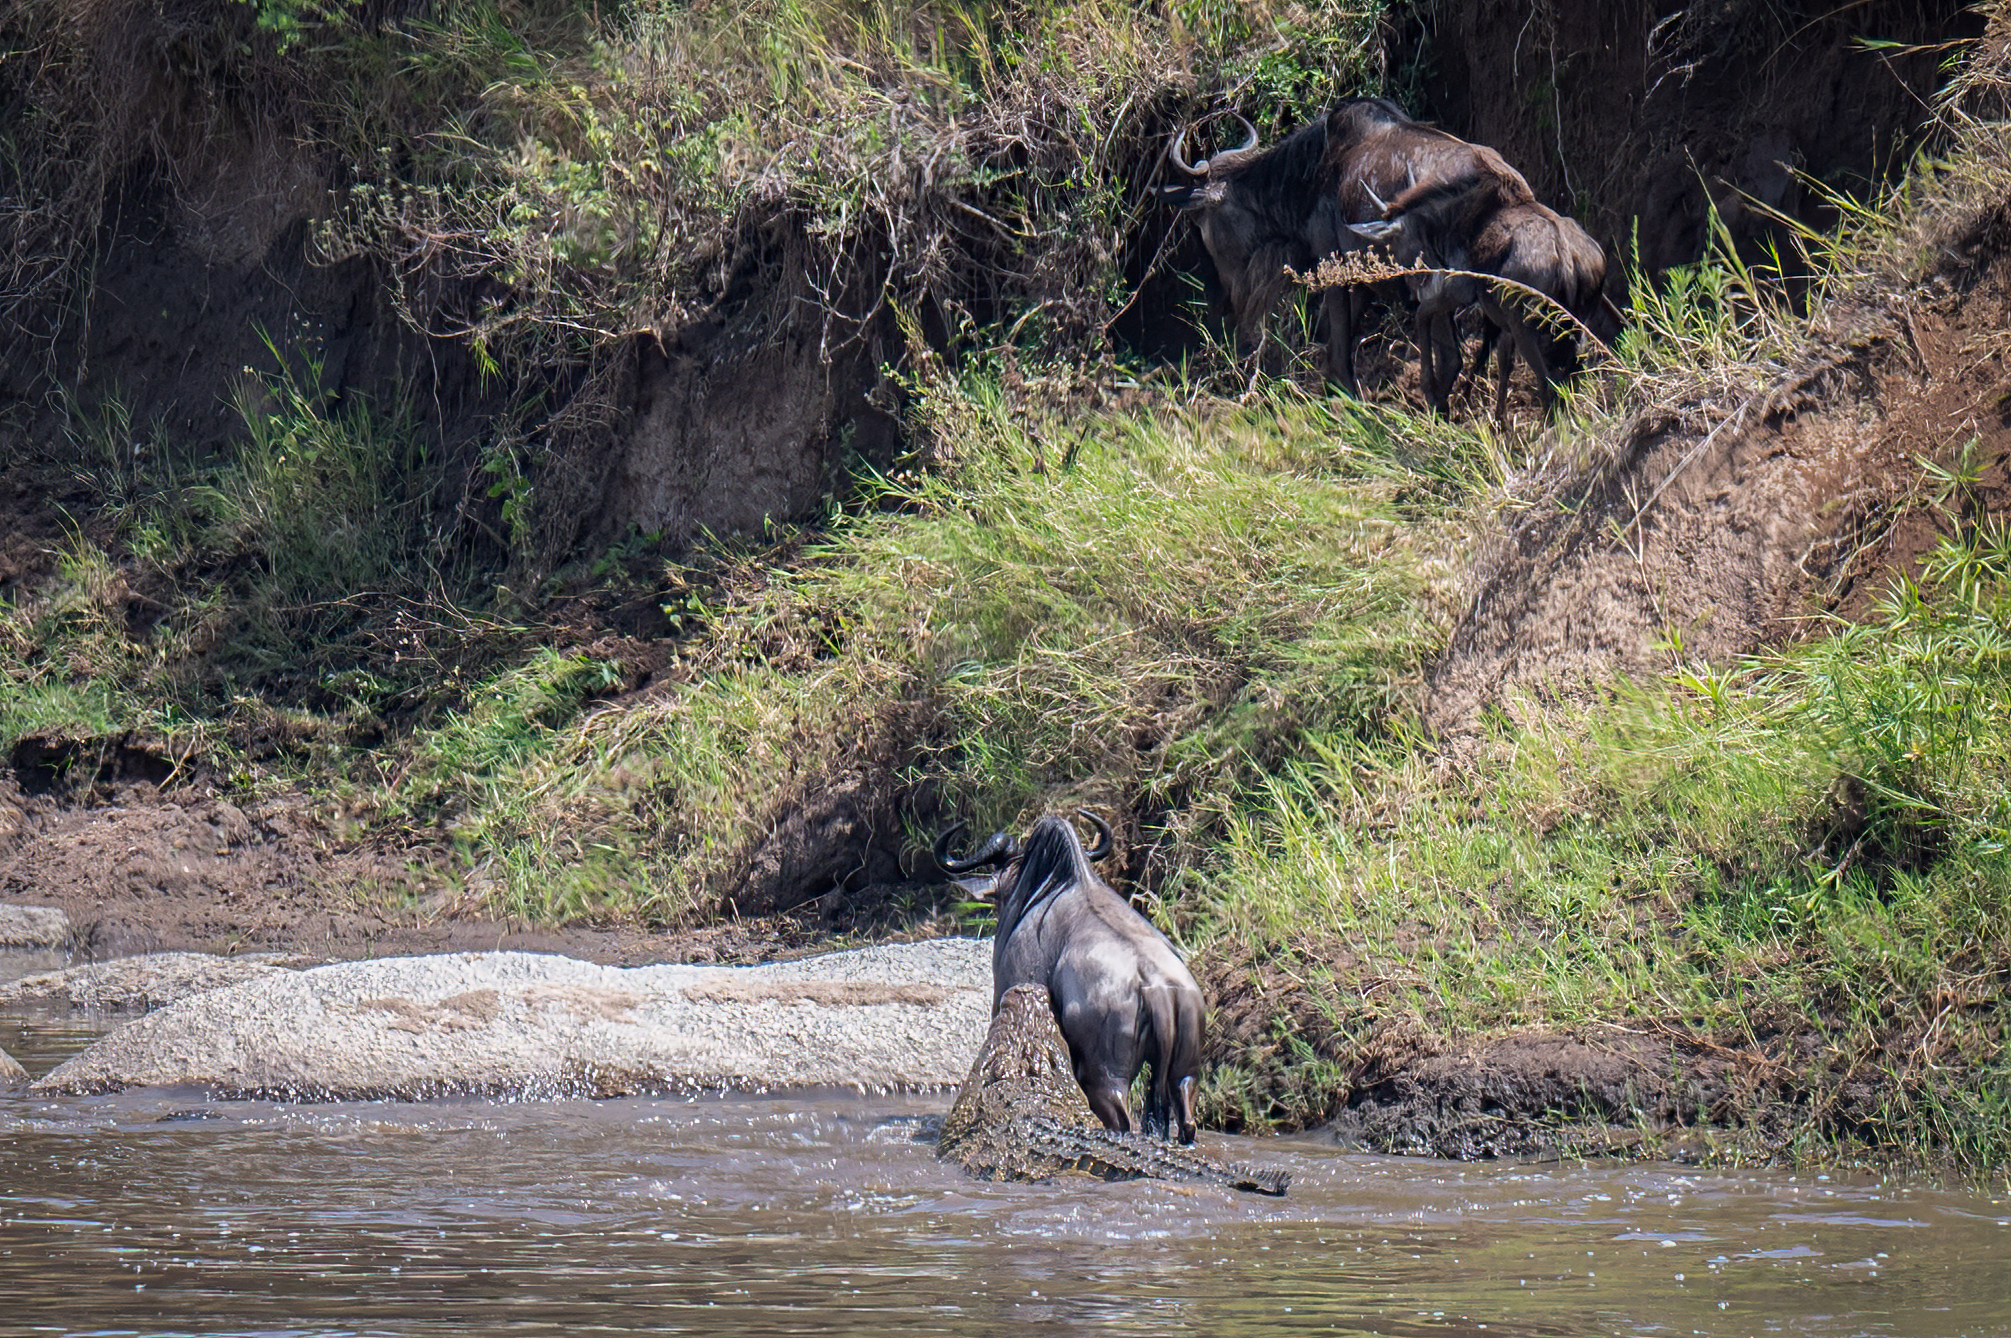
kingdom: Animalia
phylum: Chordata
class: Mammalia
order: Artiodactyla
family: Bovidae
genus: Connochaetes
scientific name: Connochaetes taurinus
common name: Blue wildebeest
